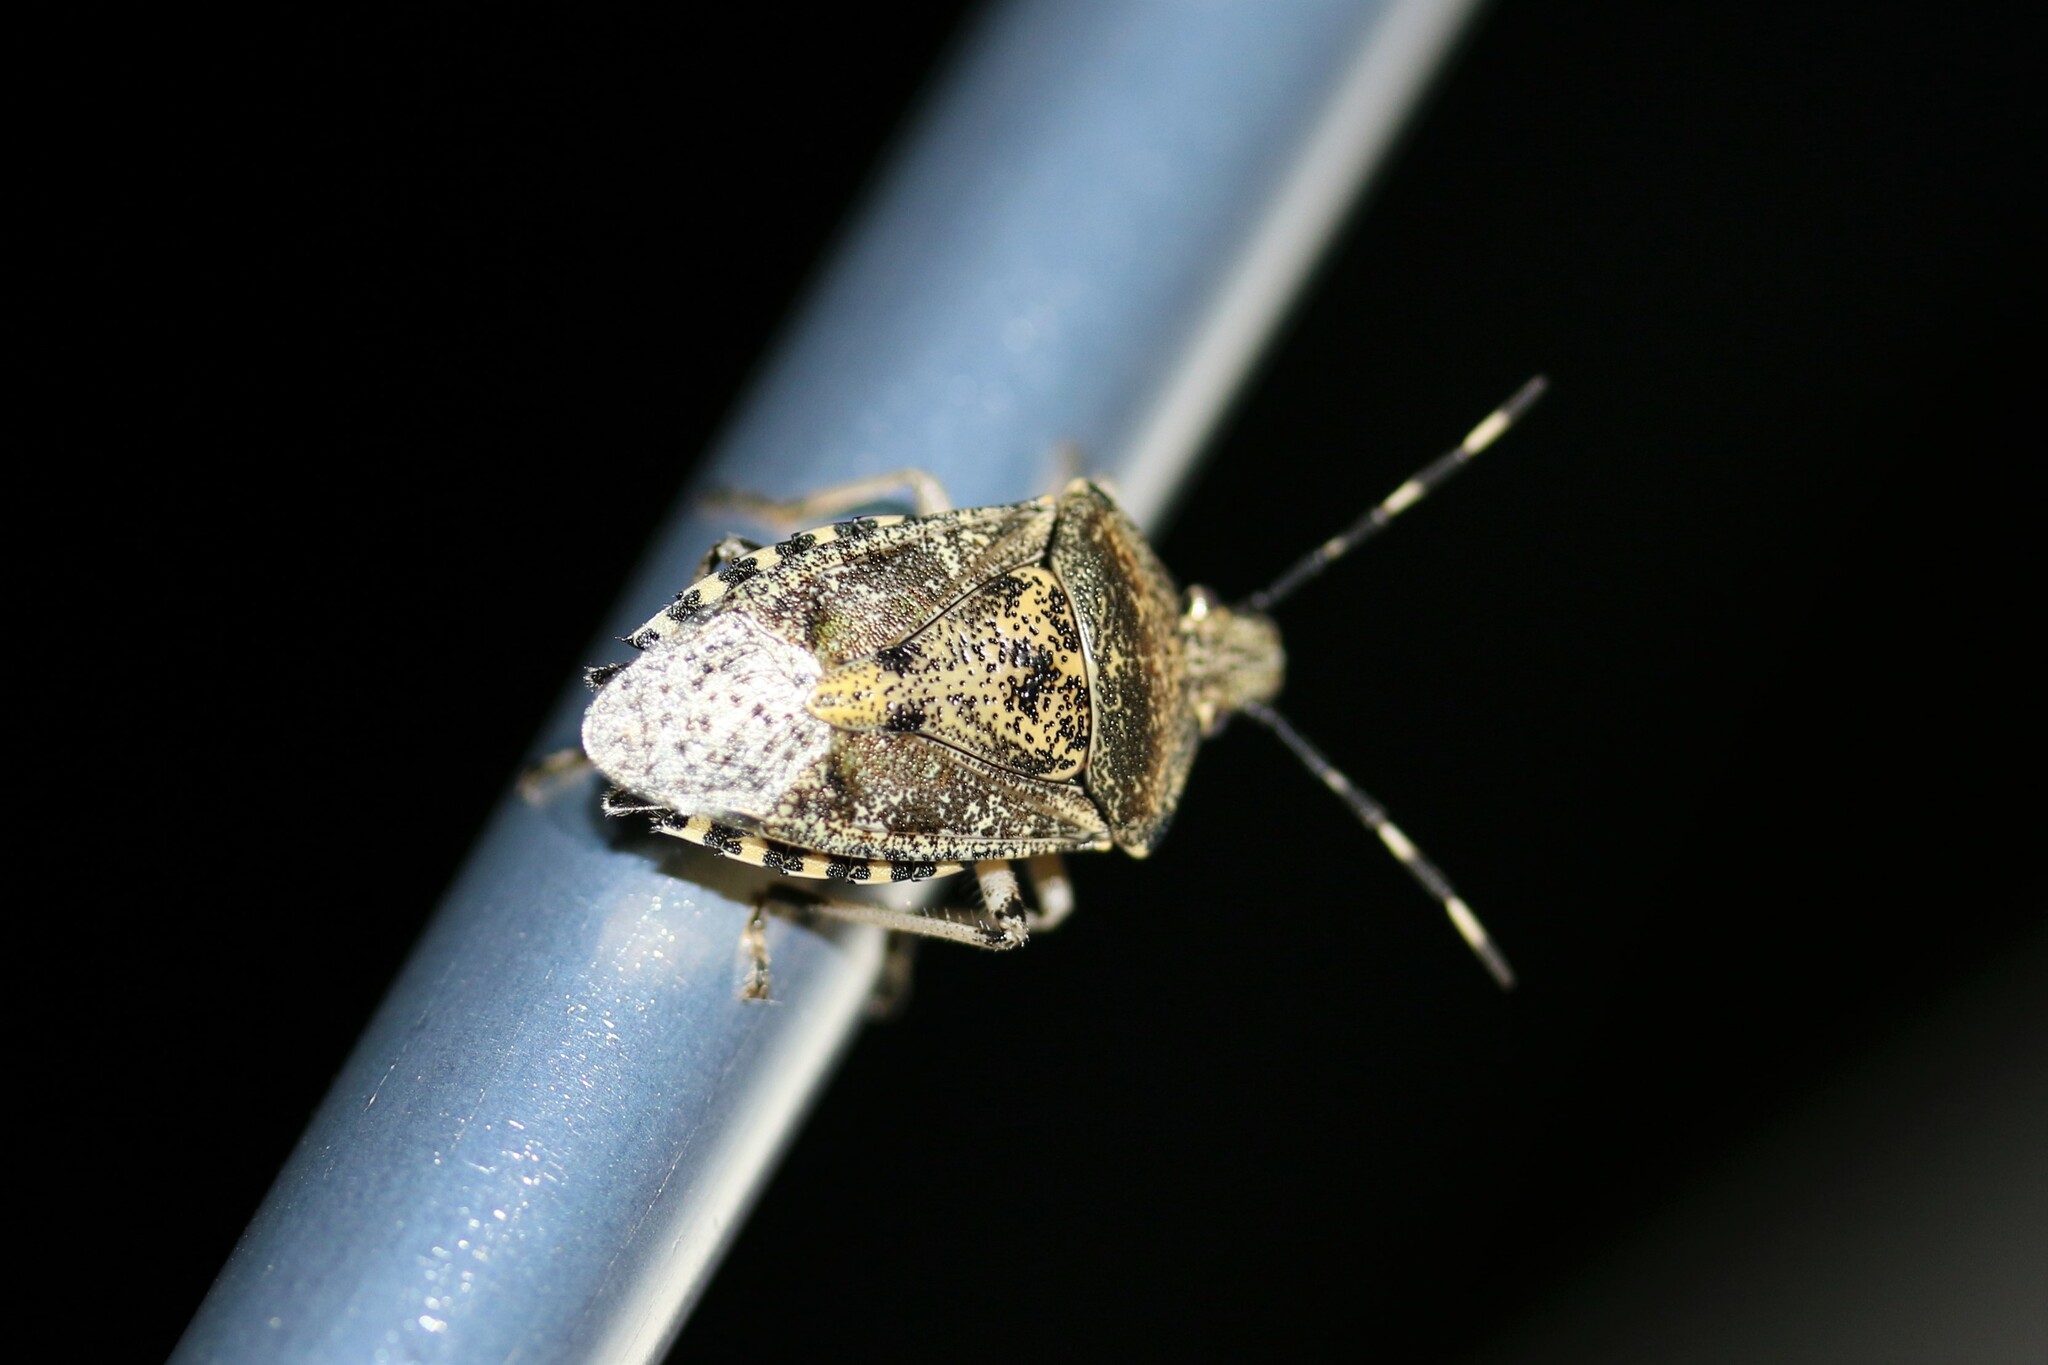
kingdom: Animalia
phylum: Arthropoda
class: Insecta
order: Hemiptera
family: Pentatomidae
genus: Rhaphigaster
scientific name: Rhaphigaster nebulosa
